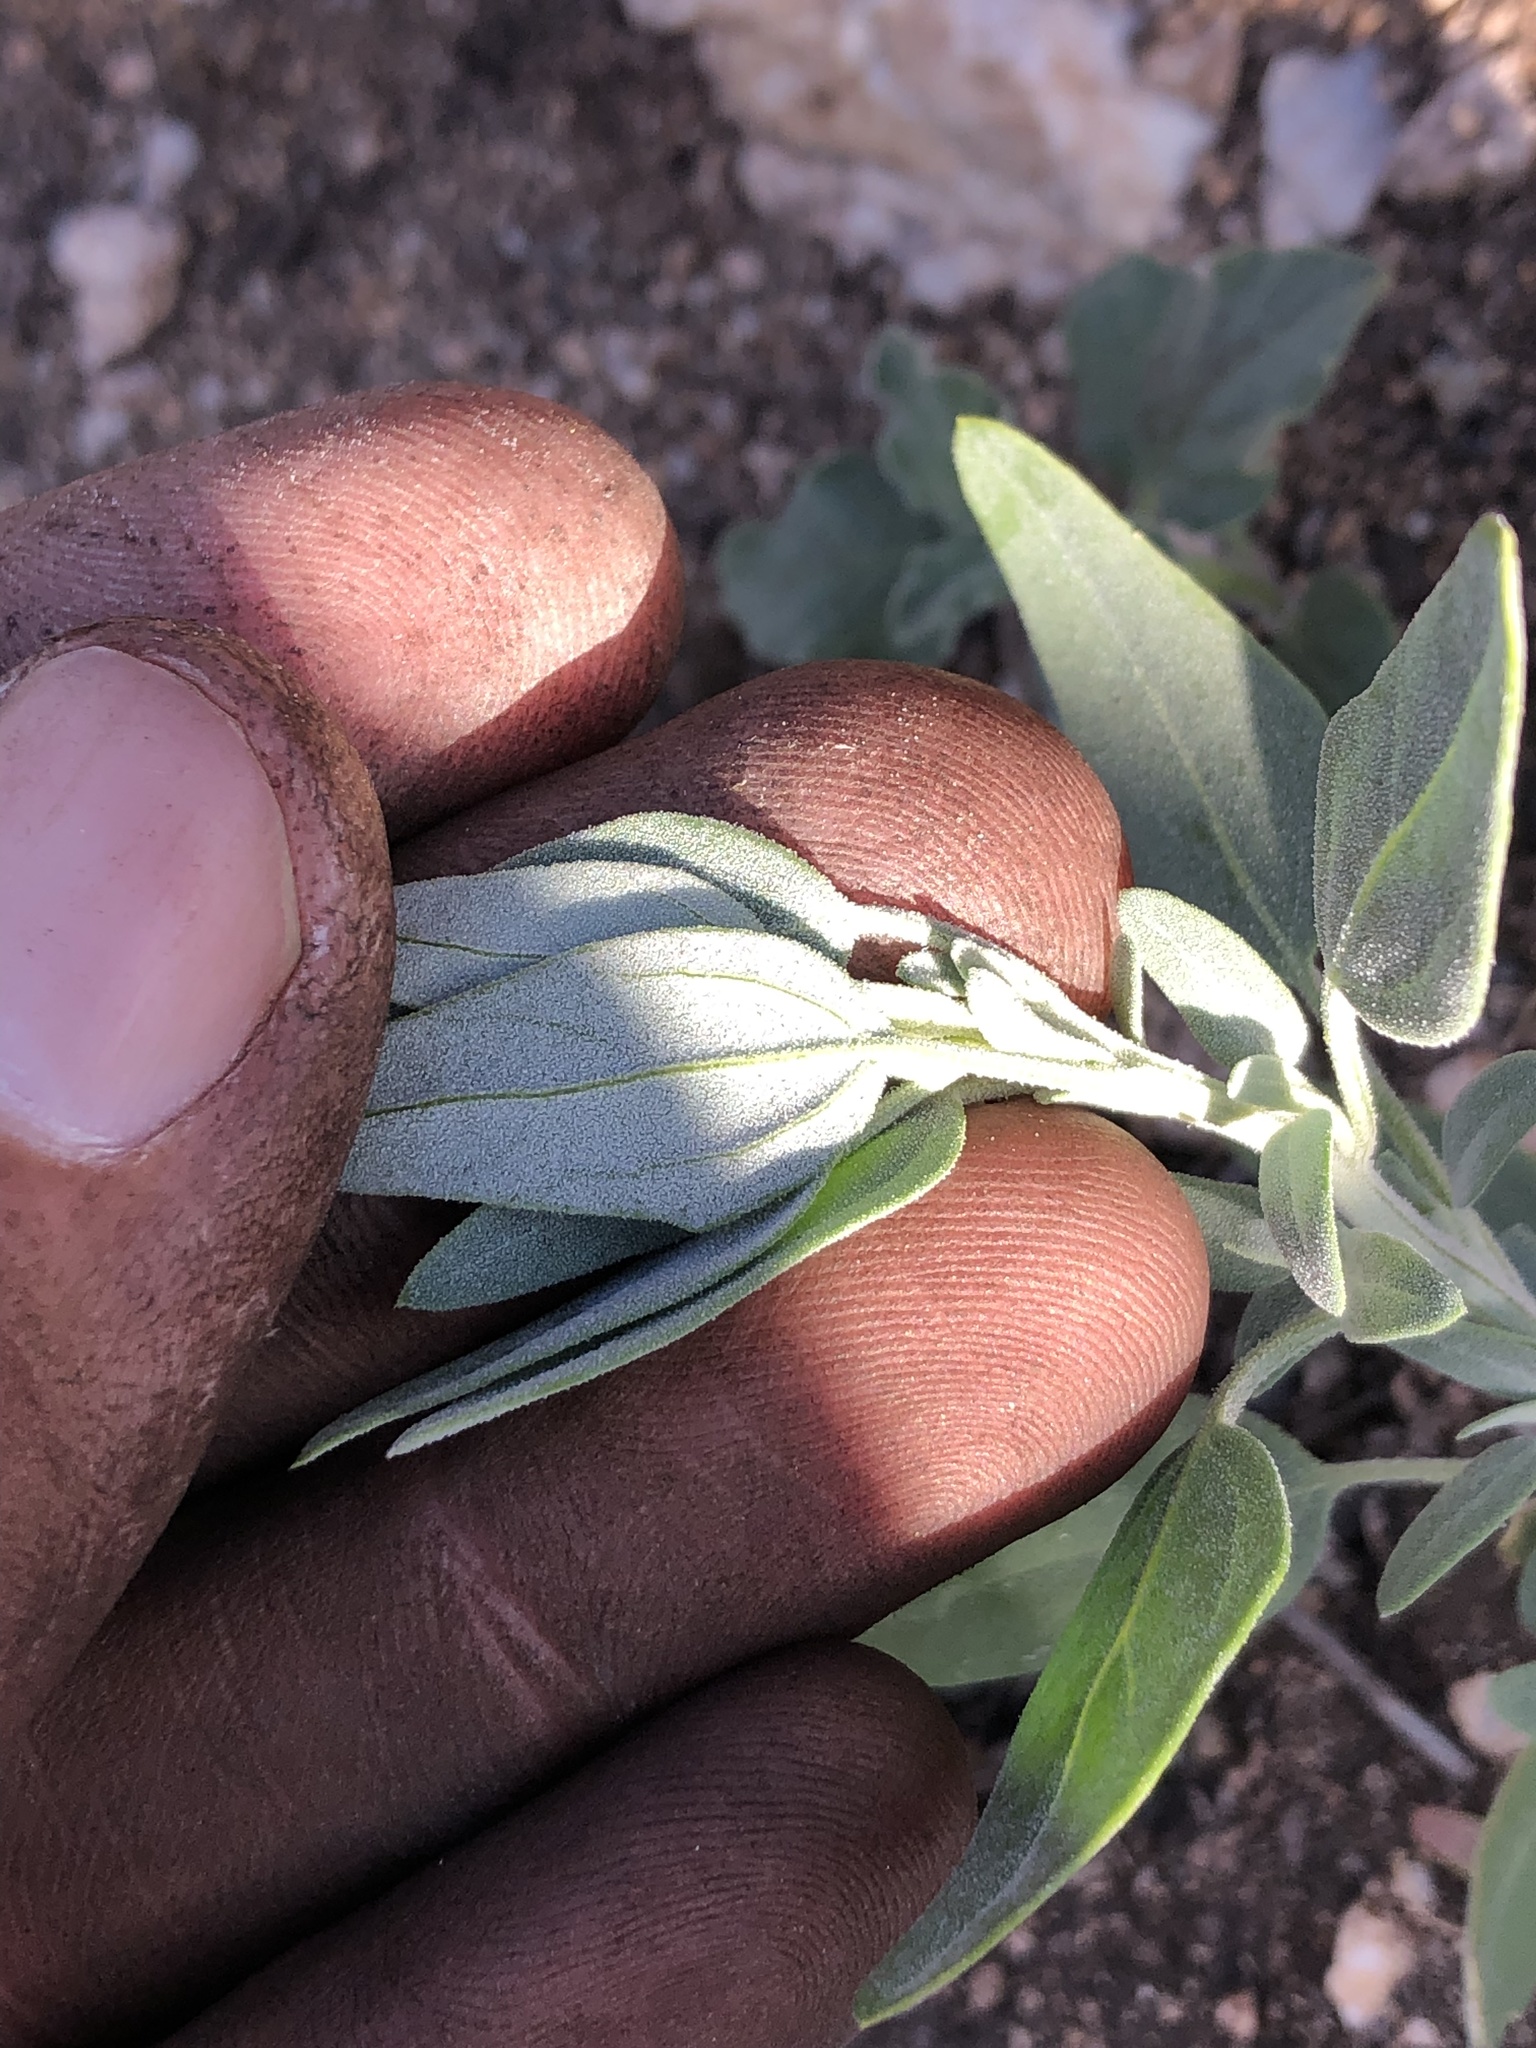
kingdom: Plantae
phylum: Tracheophyta
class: Magnoliopsida
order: Caryophyllales
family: Amaranthaceae
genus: Chenopodium
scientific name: Chenopodium album
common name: Fat-hen
